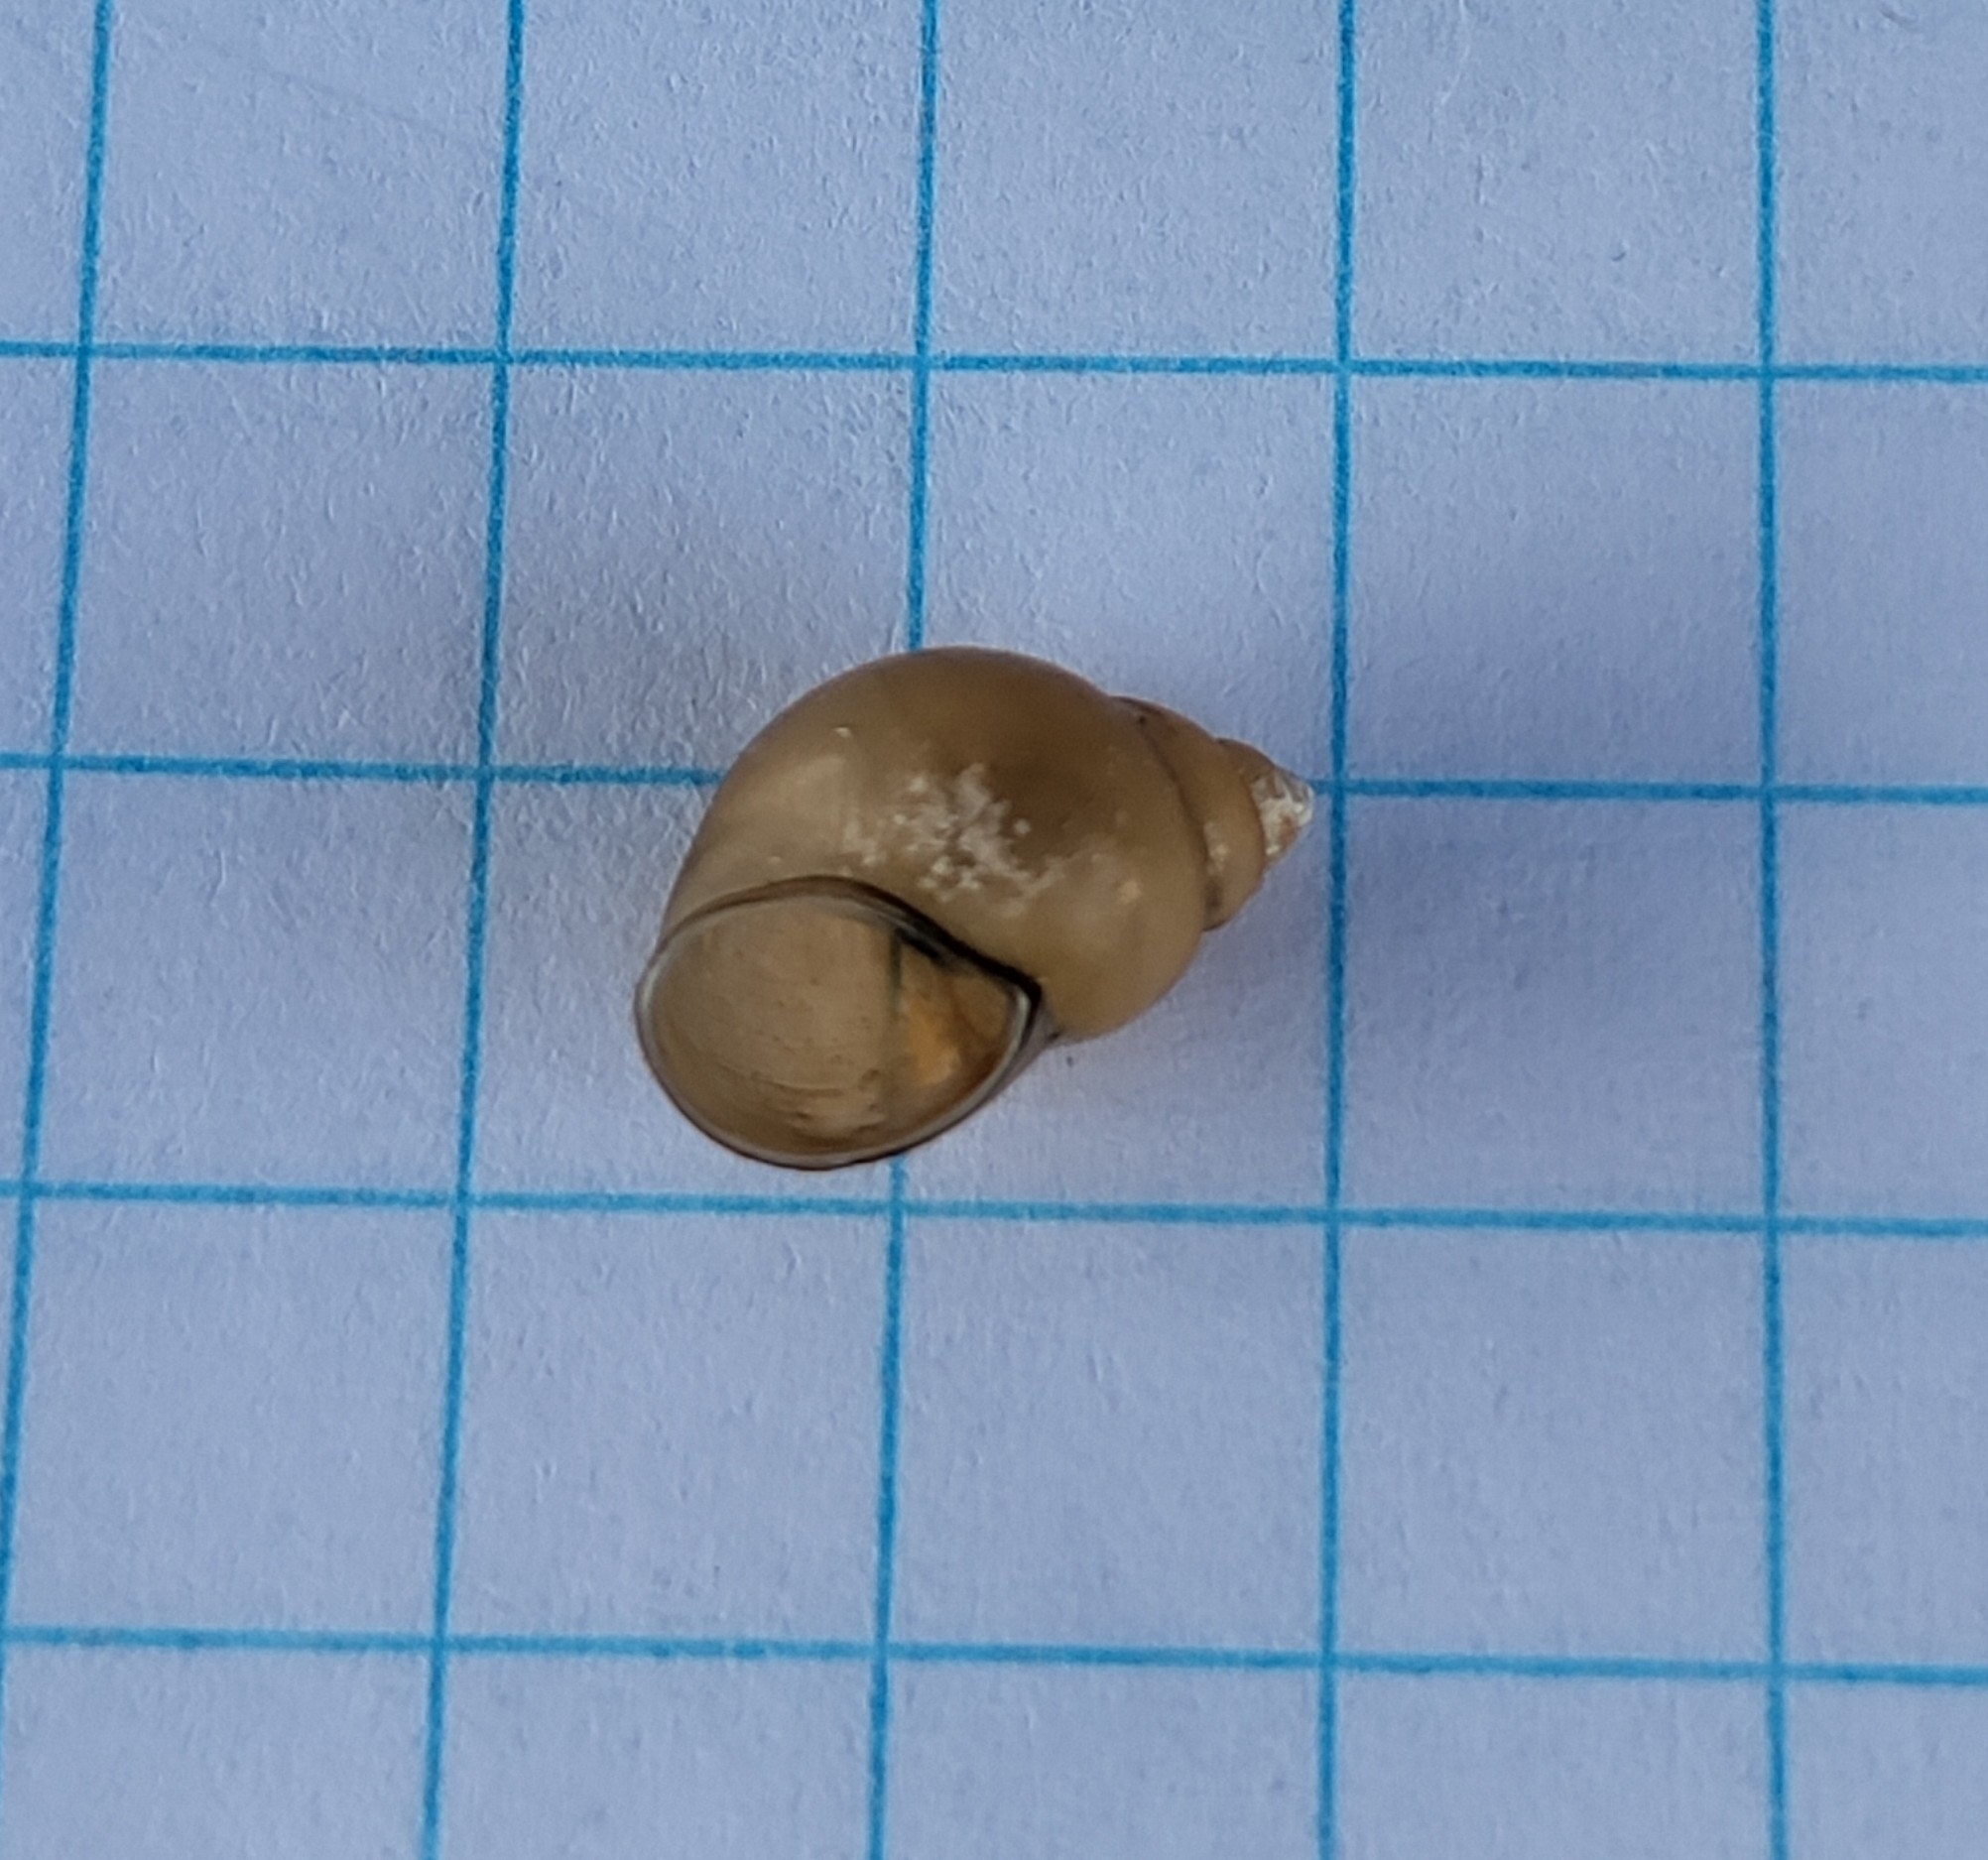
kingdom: Animalia
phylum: Mollusca
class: Gastropoda
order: Littorinimorpha
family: Bithyniidae
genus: Bithynia
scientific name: Bithynia tentaculata
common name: Common bithynia
